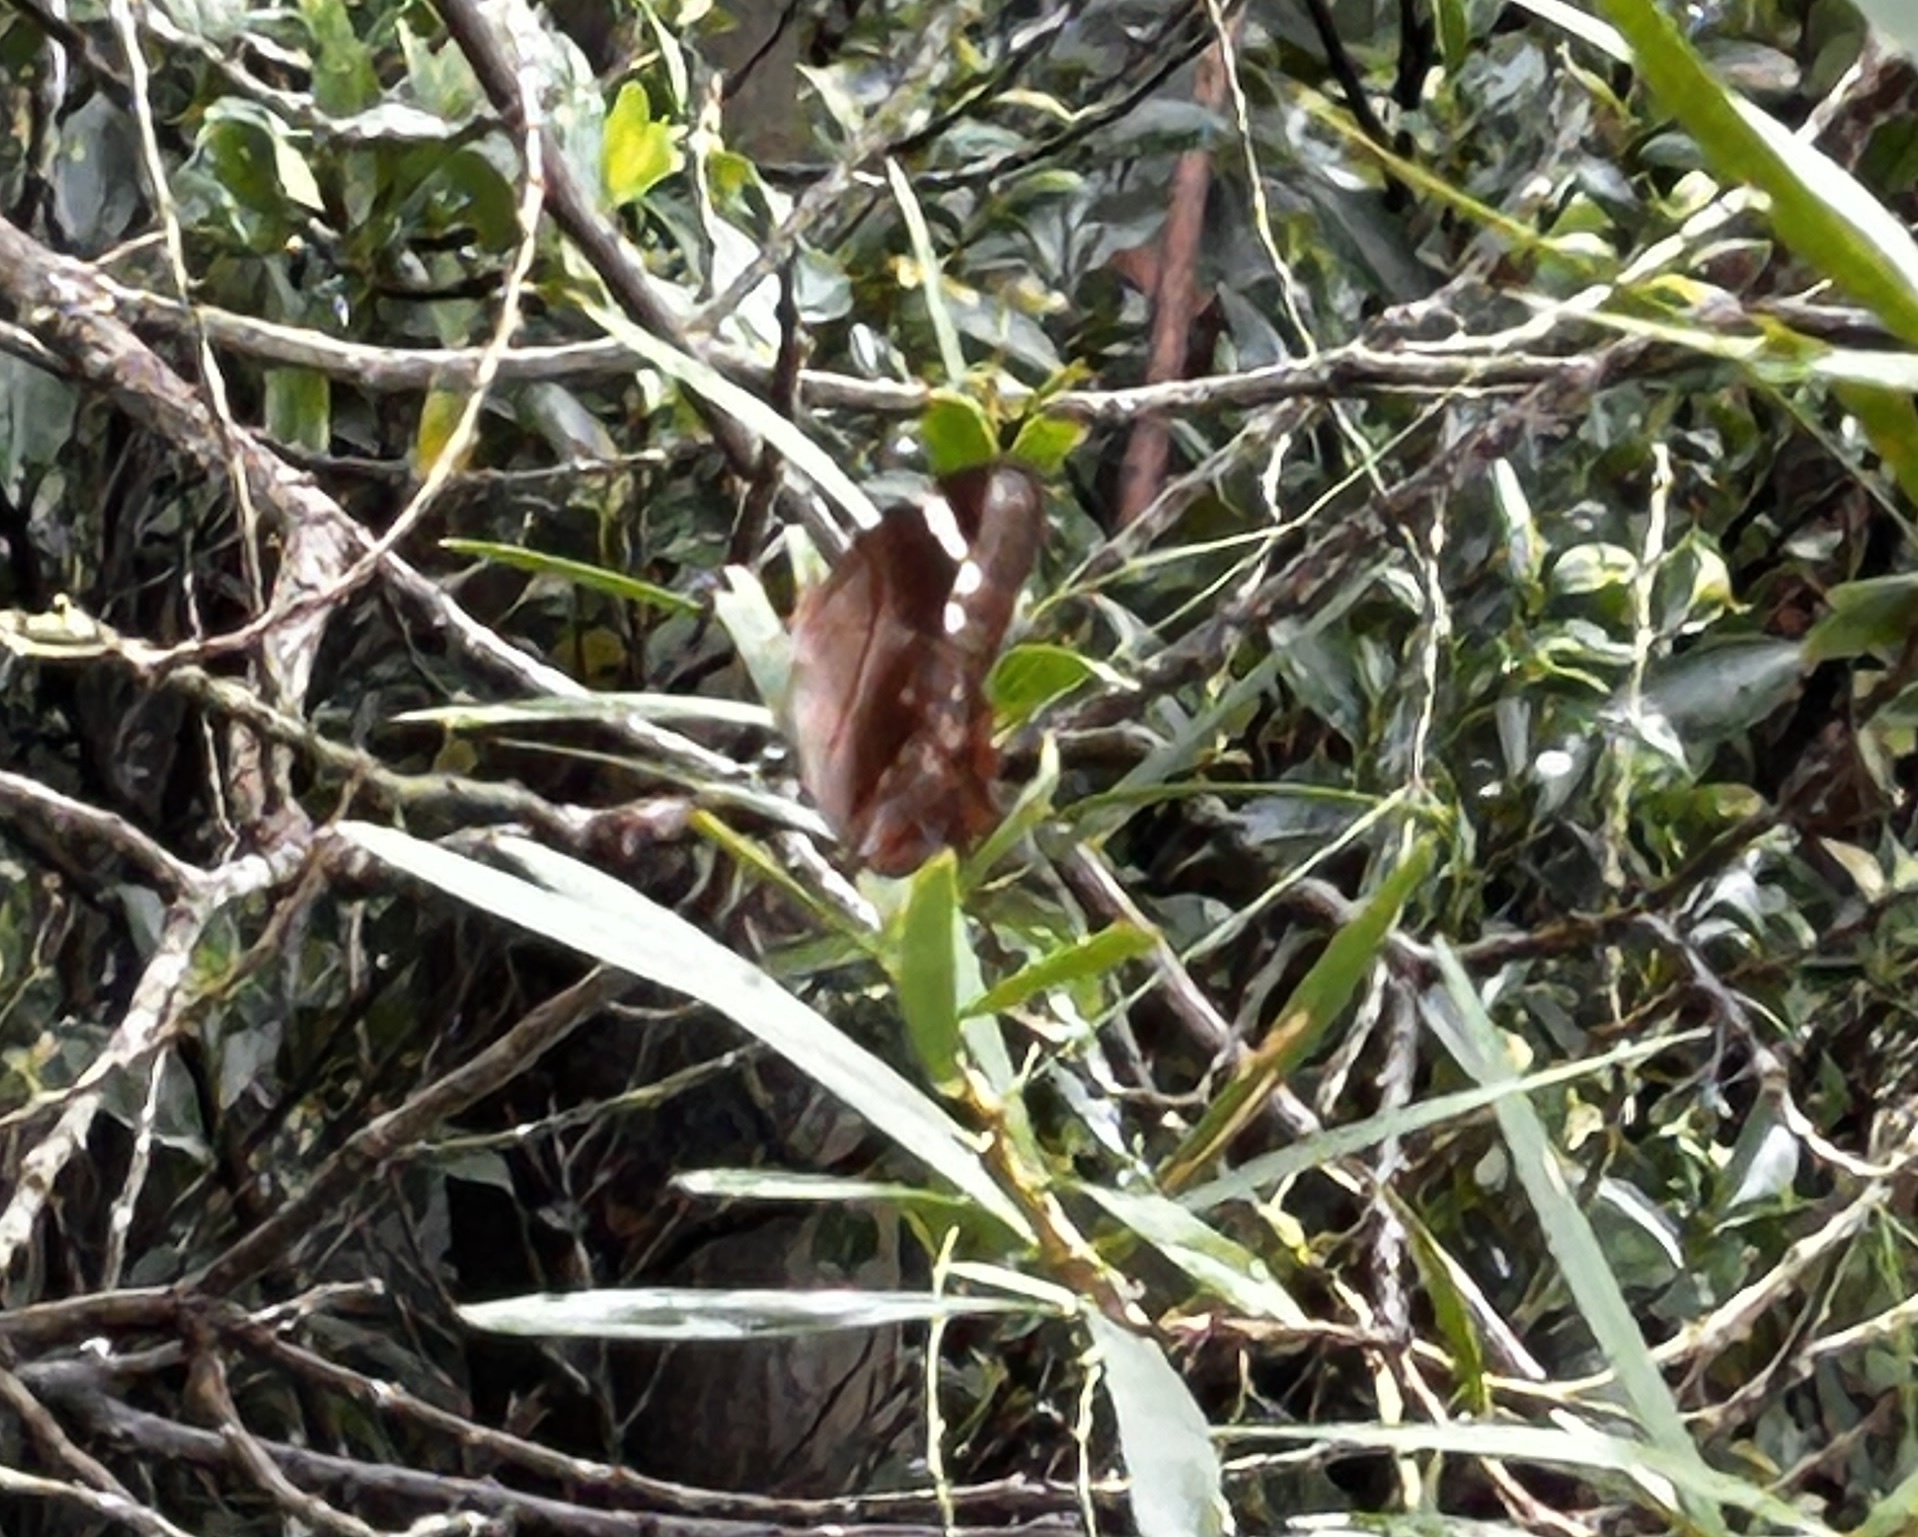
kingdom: Animalia
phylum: Arthropoda
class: Insecta
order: Lepidoptera
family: Nymphalidae
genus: Lethe
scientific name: Lethe chandica
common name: Angled red forester
